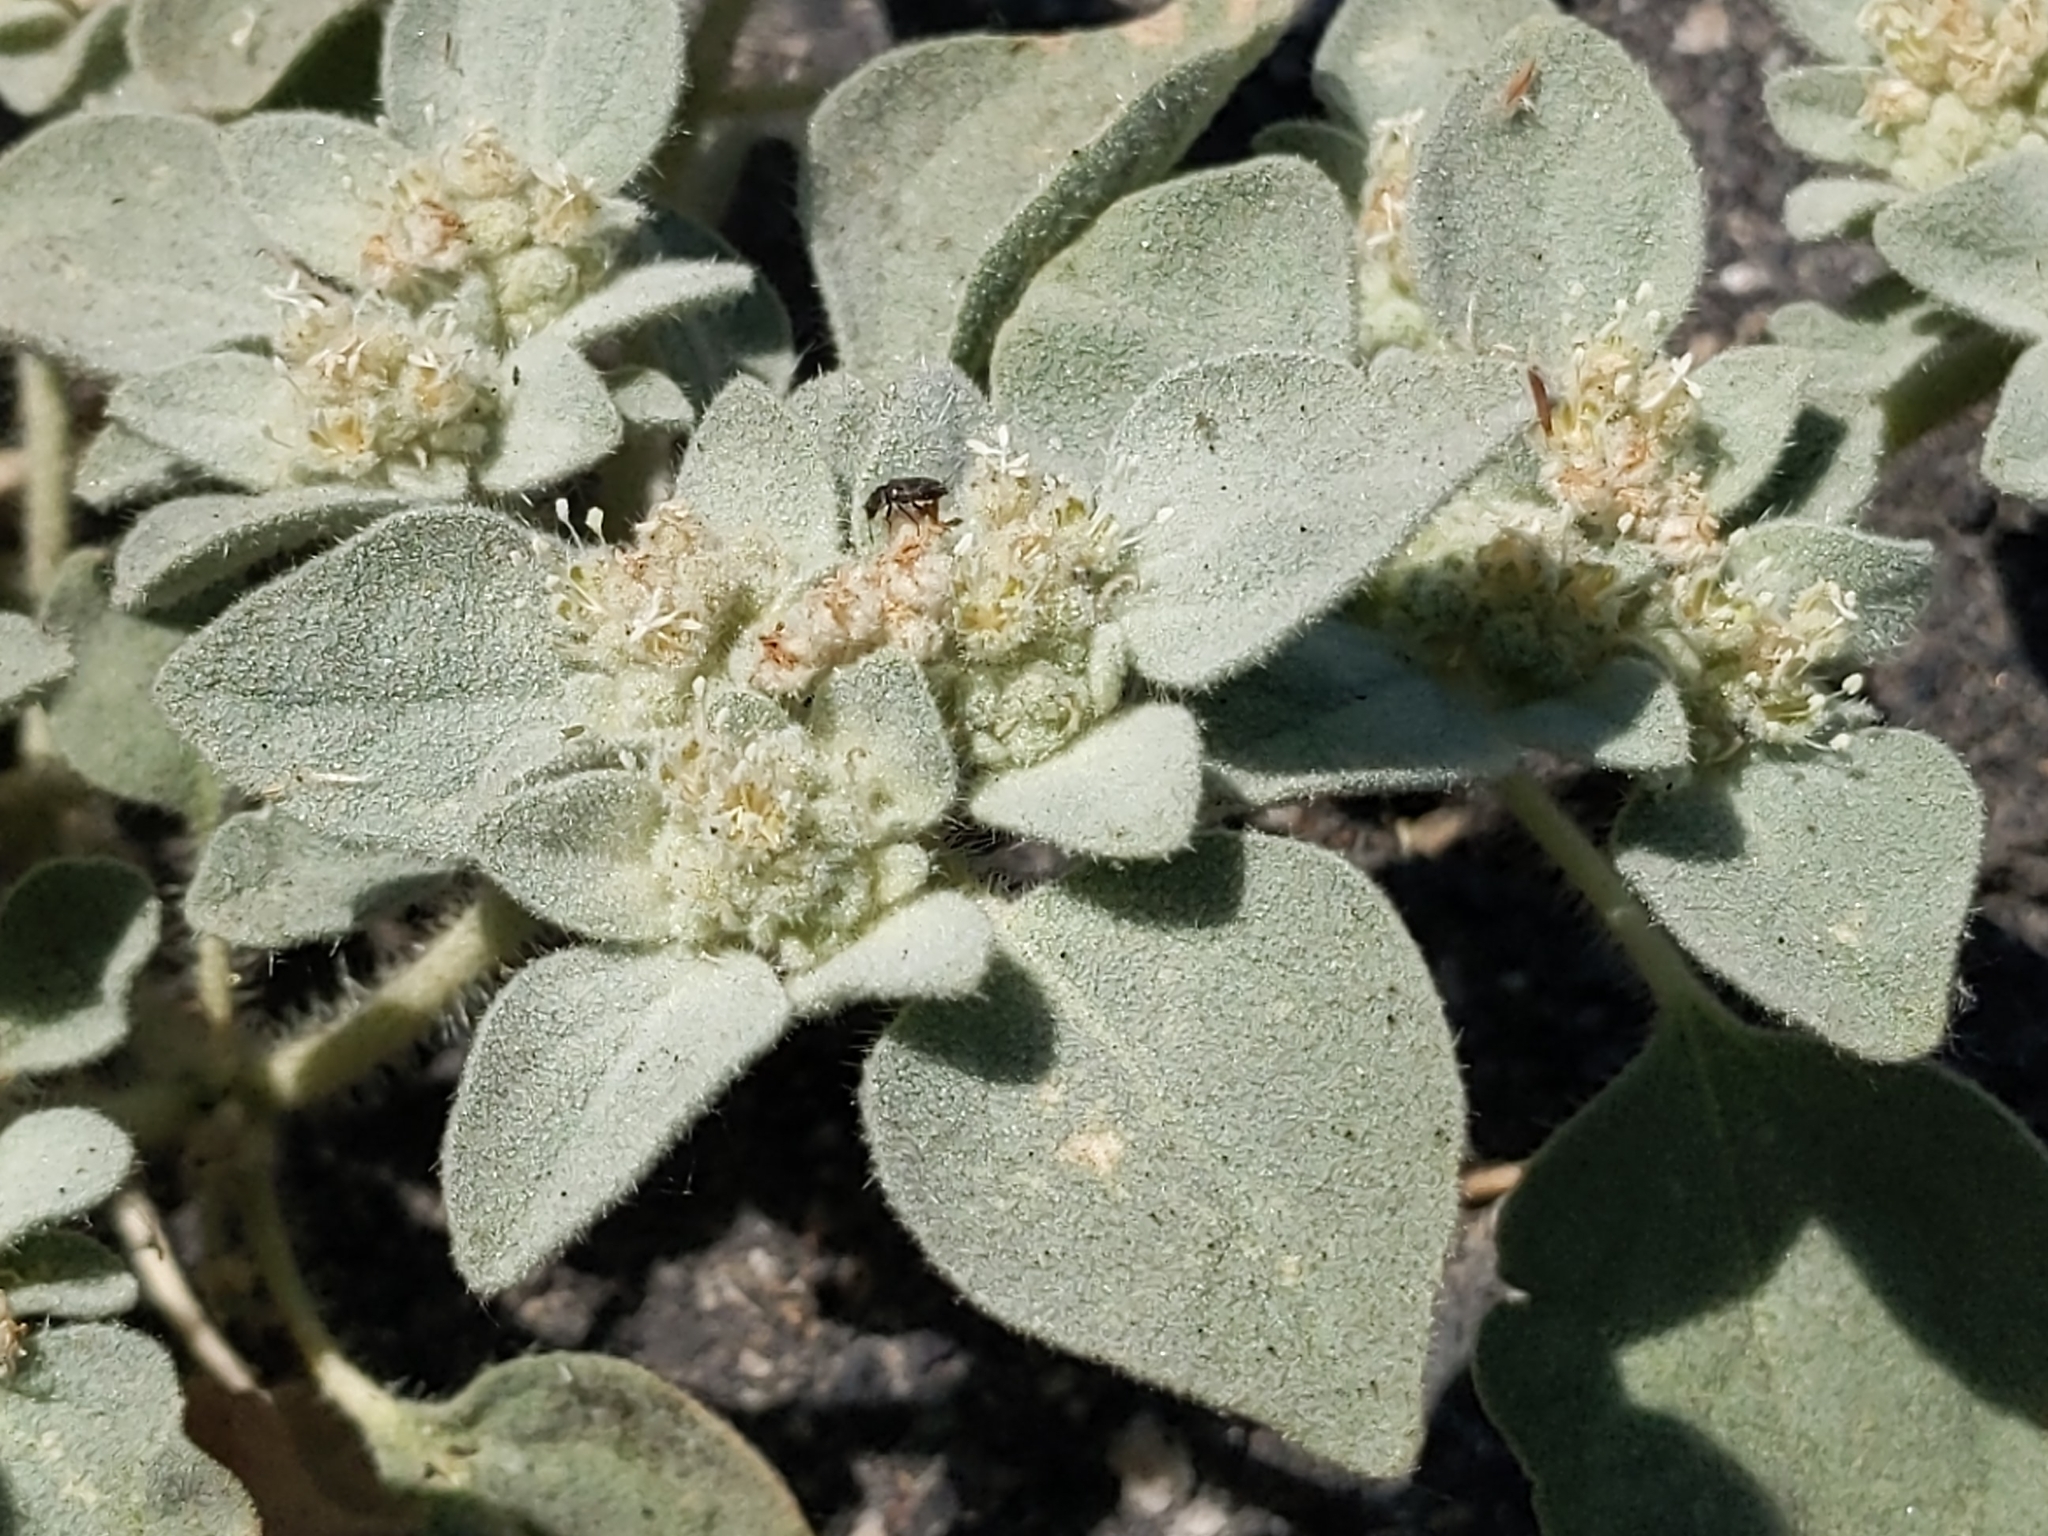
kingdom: Plantae
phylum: Tracheophyta
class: Magnoliopsida
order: Malpighiales
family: Euphorbiaceae
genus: Croton
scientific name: Croton setiger
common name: Dove weed
